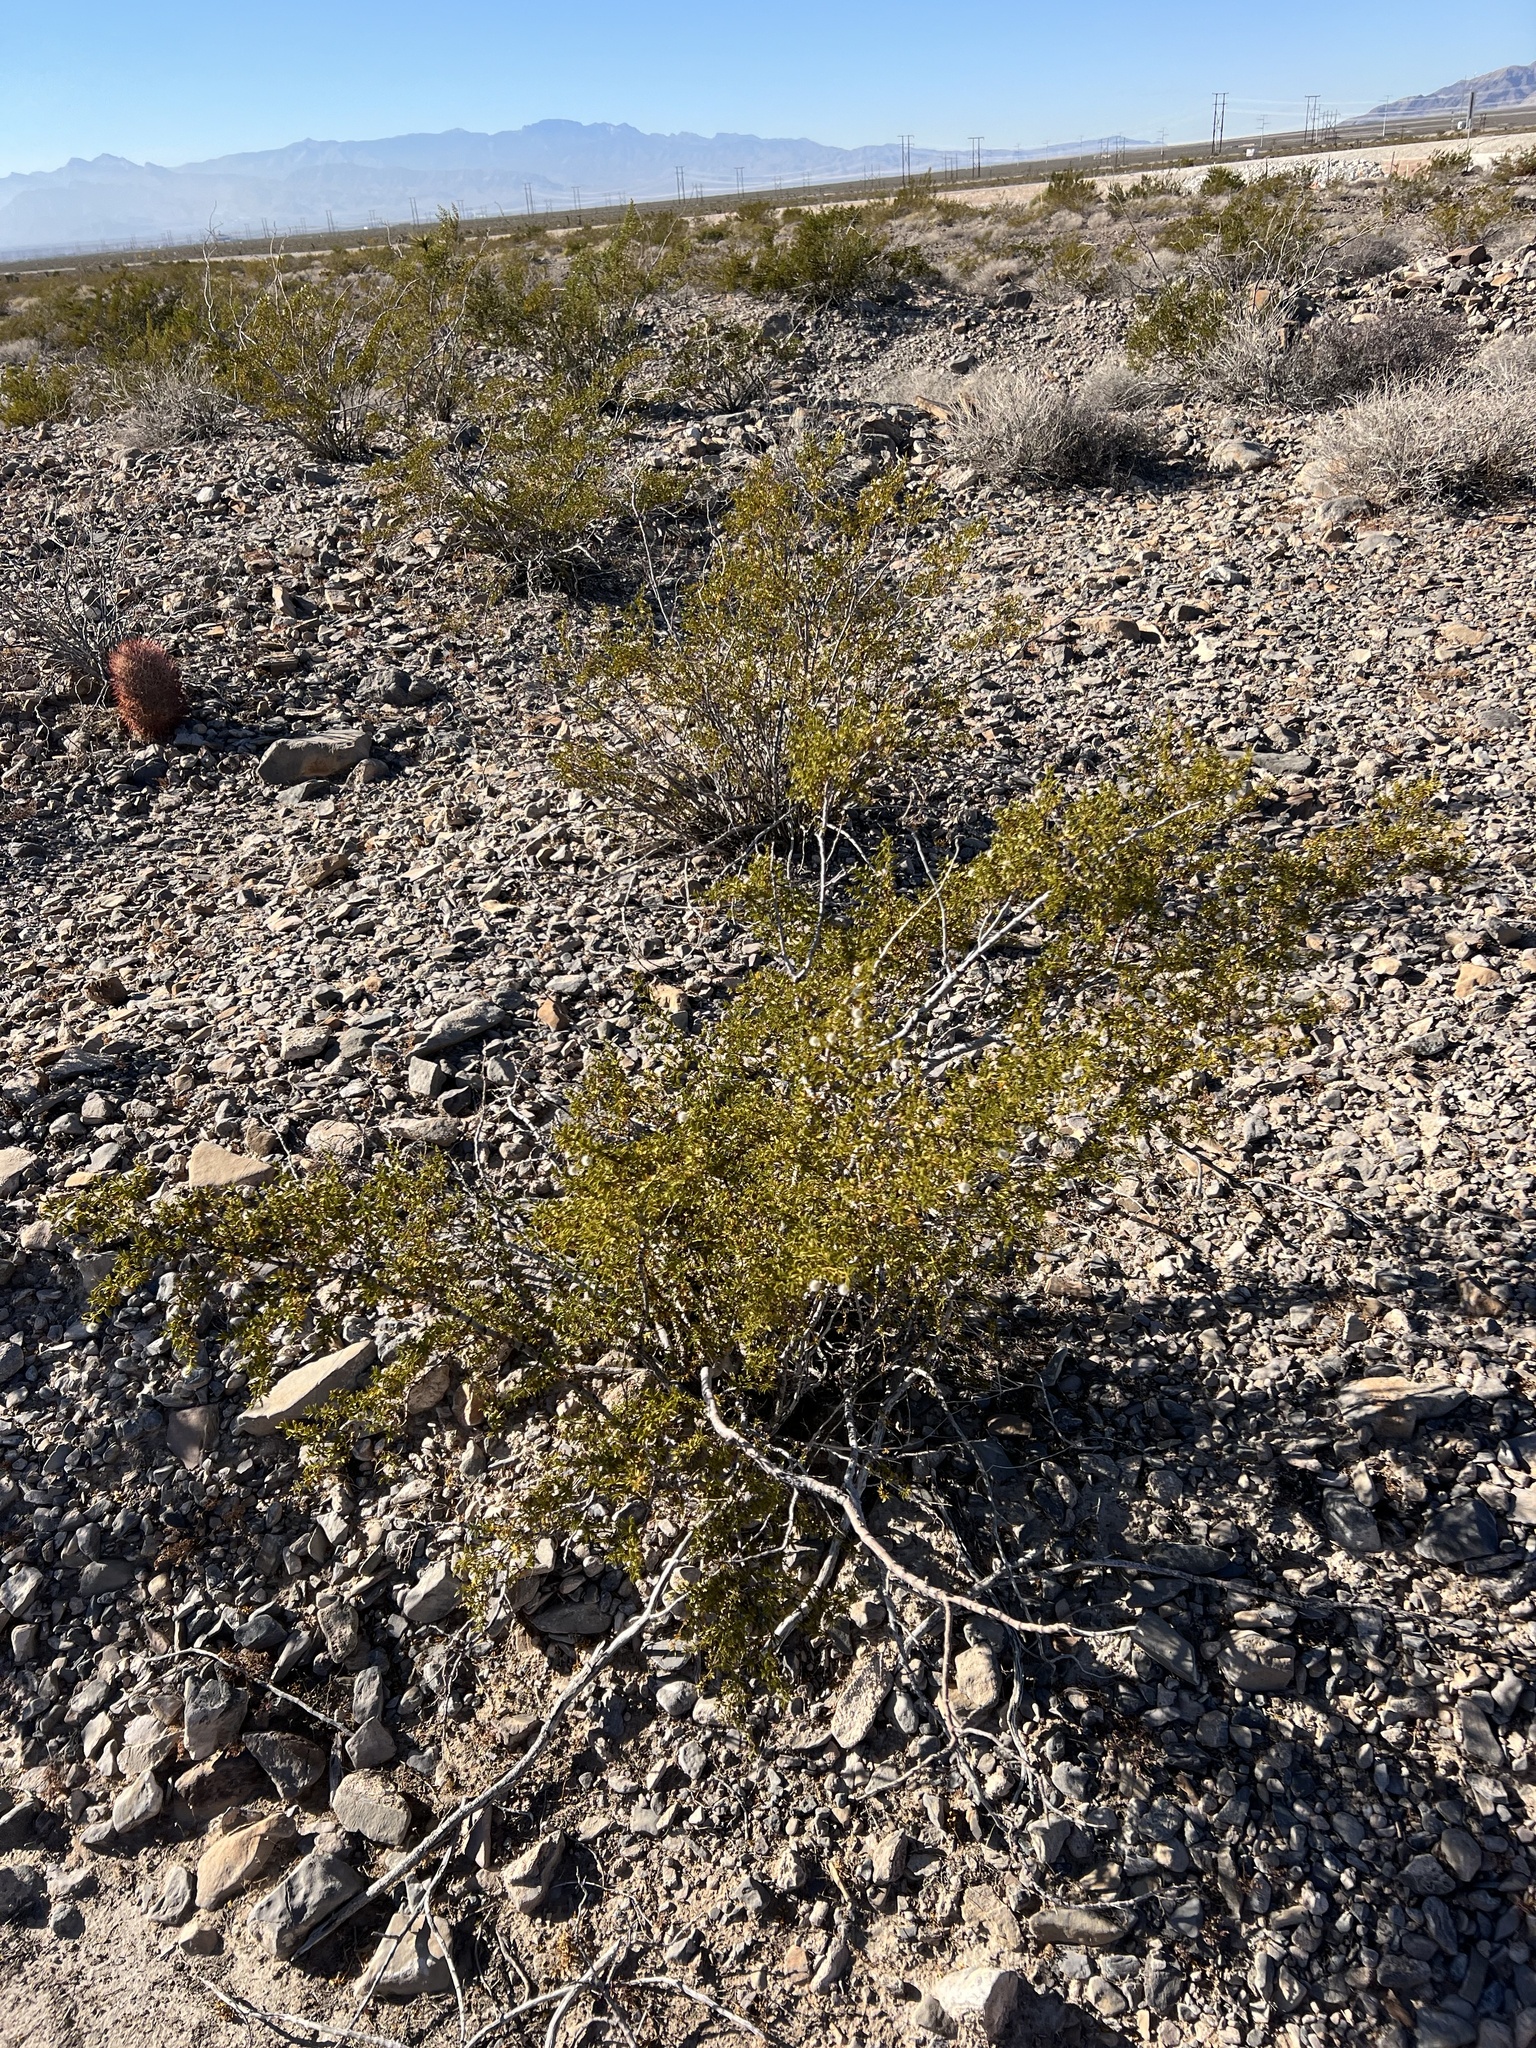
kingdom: Plantae
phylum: Tracheophyta
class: Magnoliopsida
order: Zygophyllales
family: Zygophyllaceae
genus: Larrea
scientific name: Larrea tridentata
